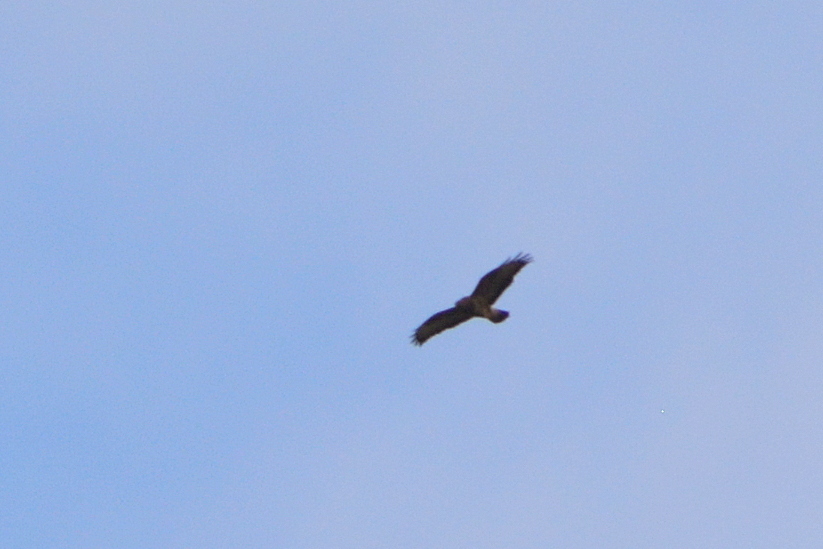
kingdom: Animalia
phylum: Chordata
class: Aves
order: Accipitriformes
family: Accipitridae
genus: Buteo
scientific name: Buteo buteo
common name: Common buzzard
